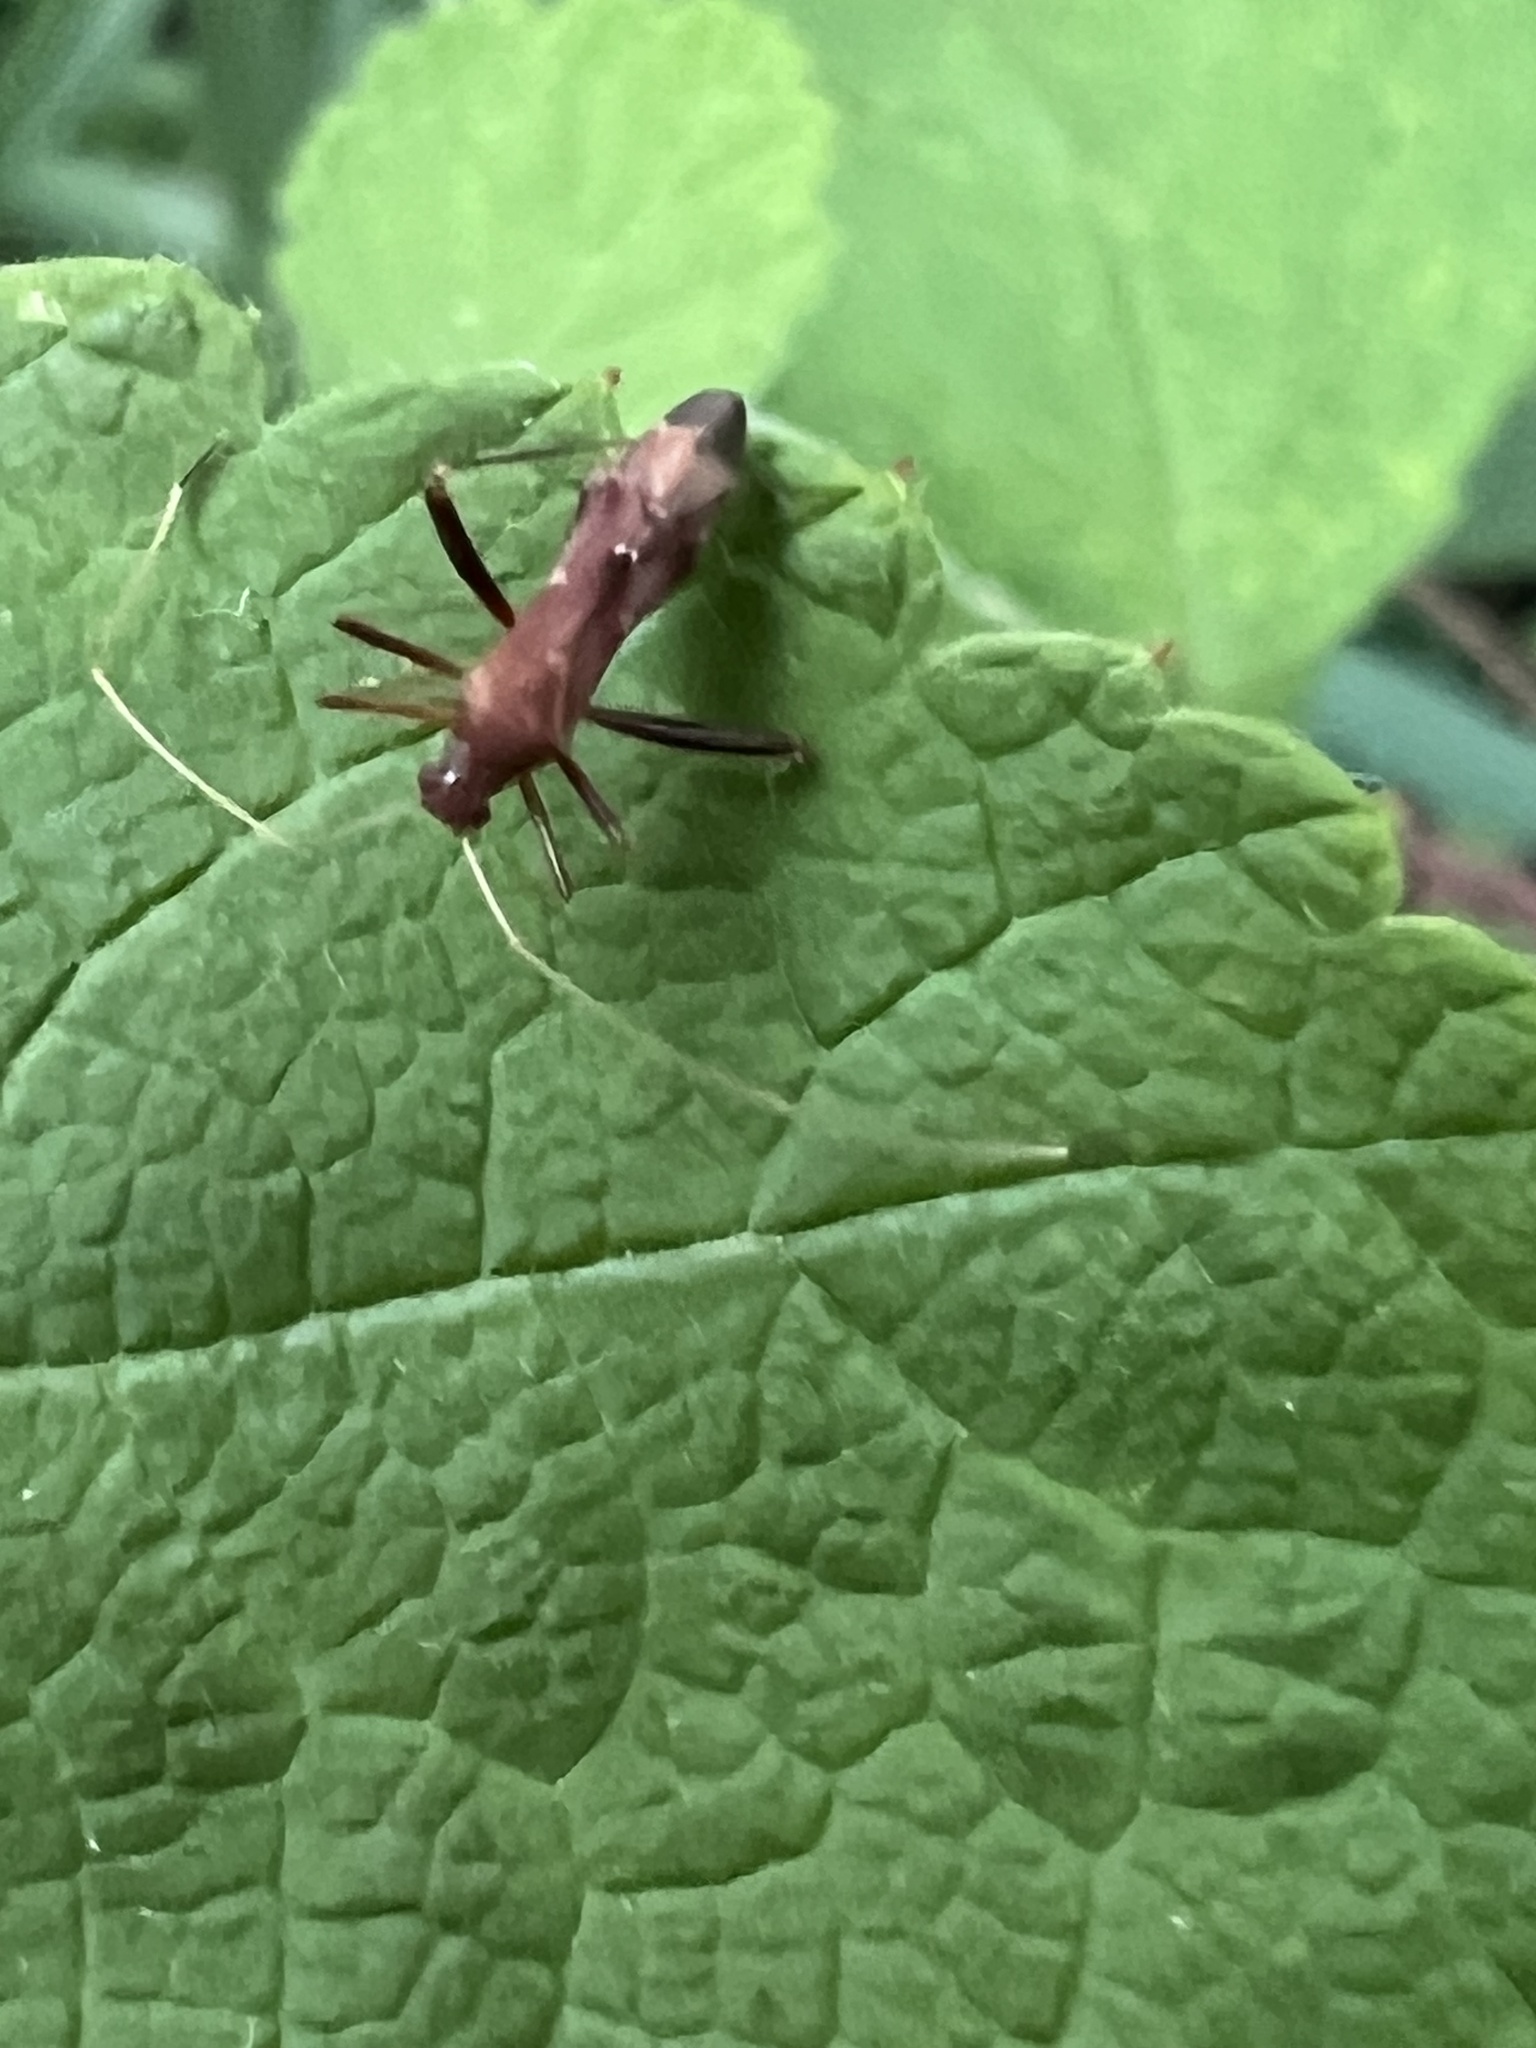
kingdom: Animalia
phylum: Arthropoda
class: Insecta
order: Hemiptera
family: Miridae
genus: Paraxenetus
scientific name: Paraxenetus guttulatus
